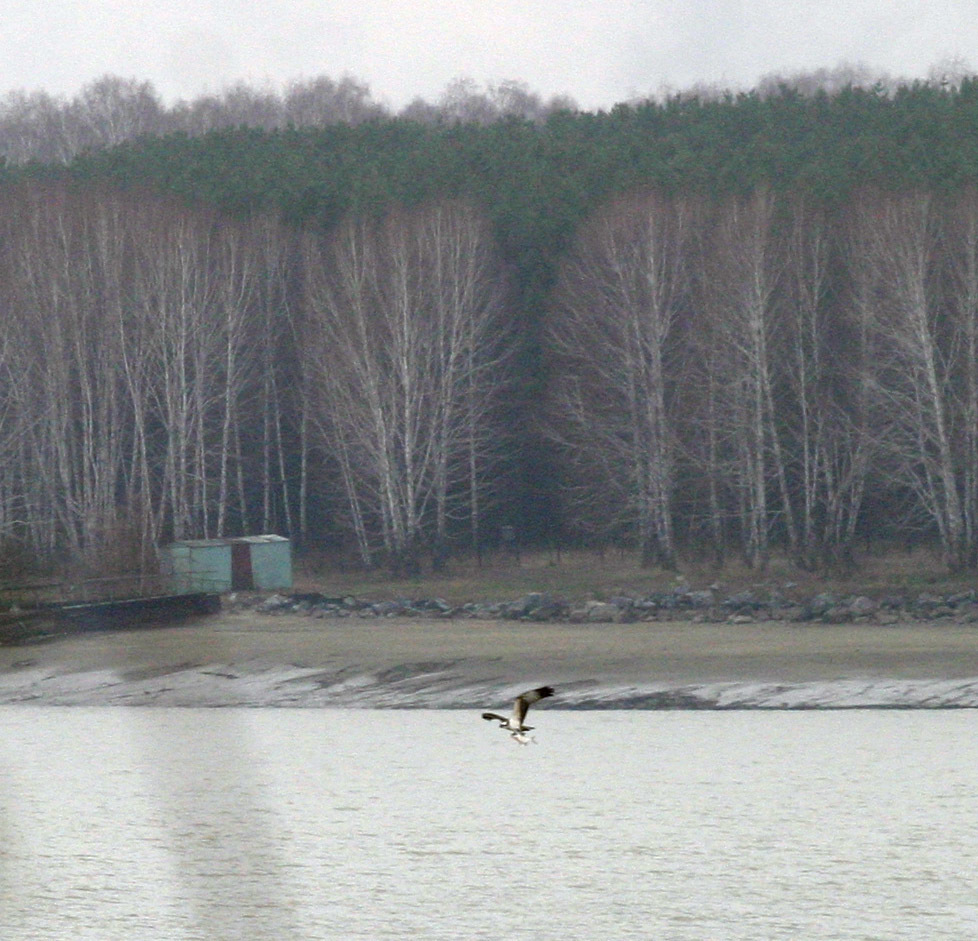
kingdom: Animalia
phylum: Chordata
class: Aves
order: Accipitriformes
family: Pandionidae
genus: Pandion
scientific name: Pandion haliaetus
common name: Osprey
